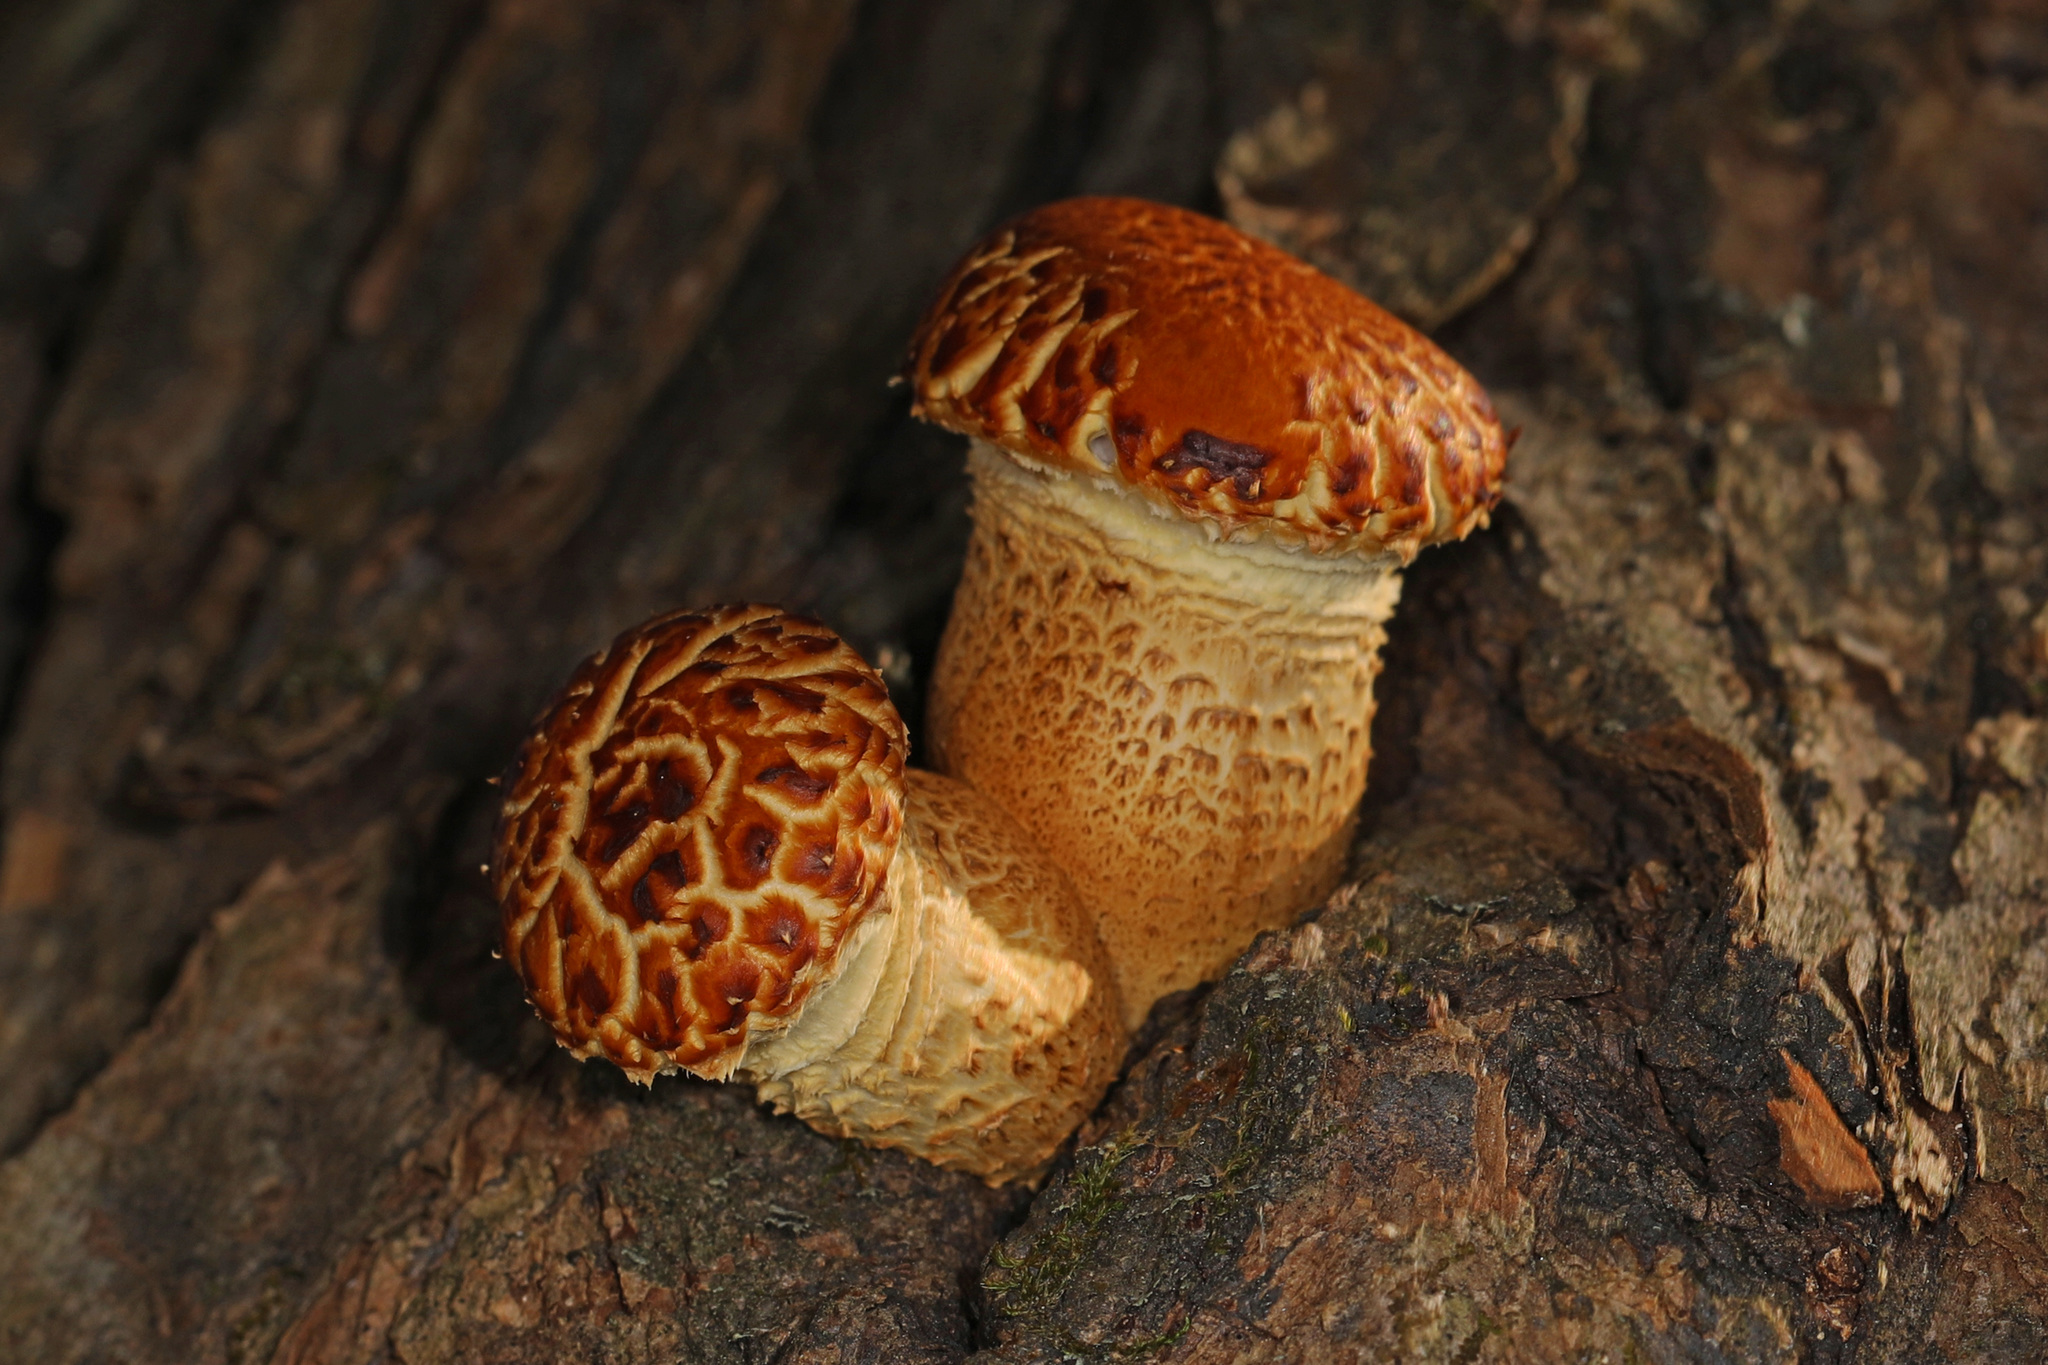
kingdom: Fungi
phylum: Basidiomycota
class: Agaricomycetes
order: Polyporales
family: Polyporaceae
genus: Cerioporus
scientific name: Cerioporus squamosus
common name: Dryad's saddle
